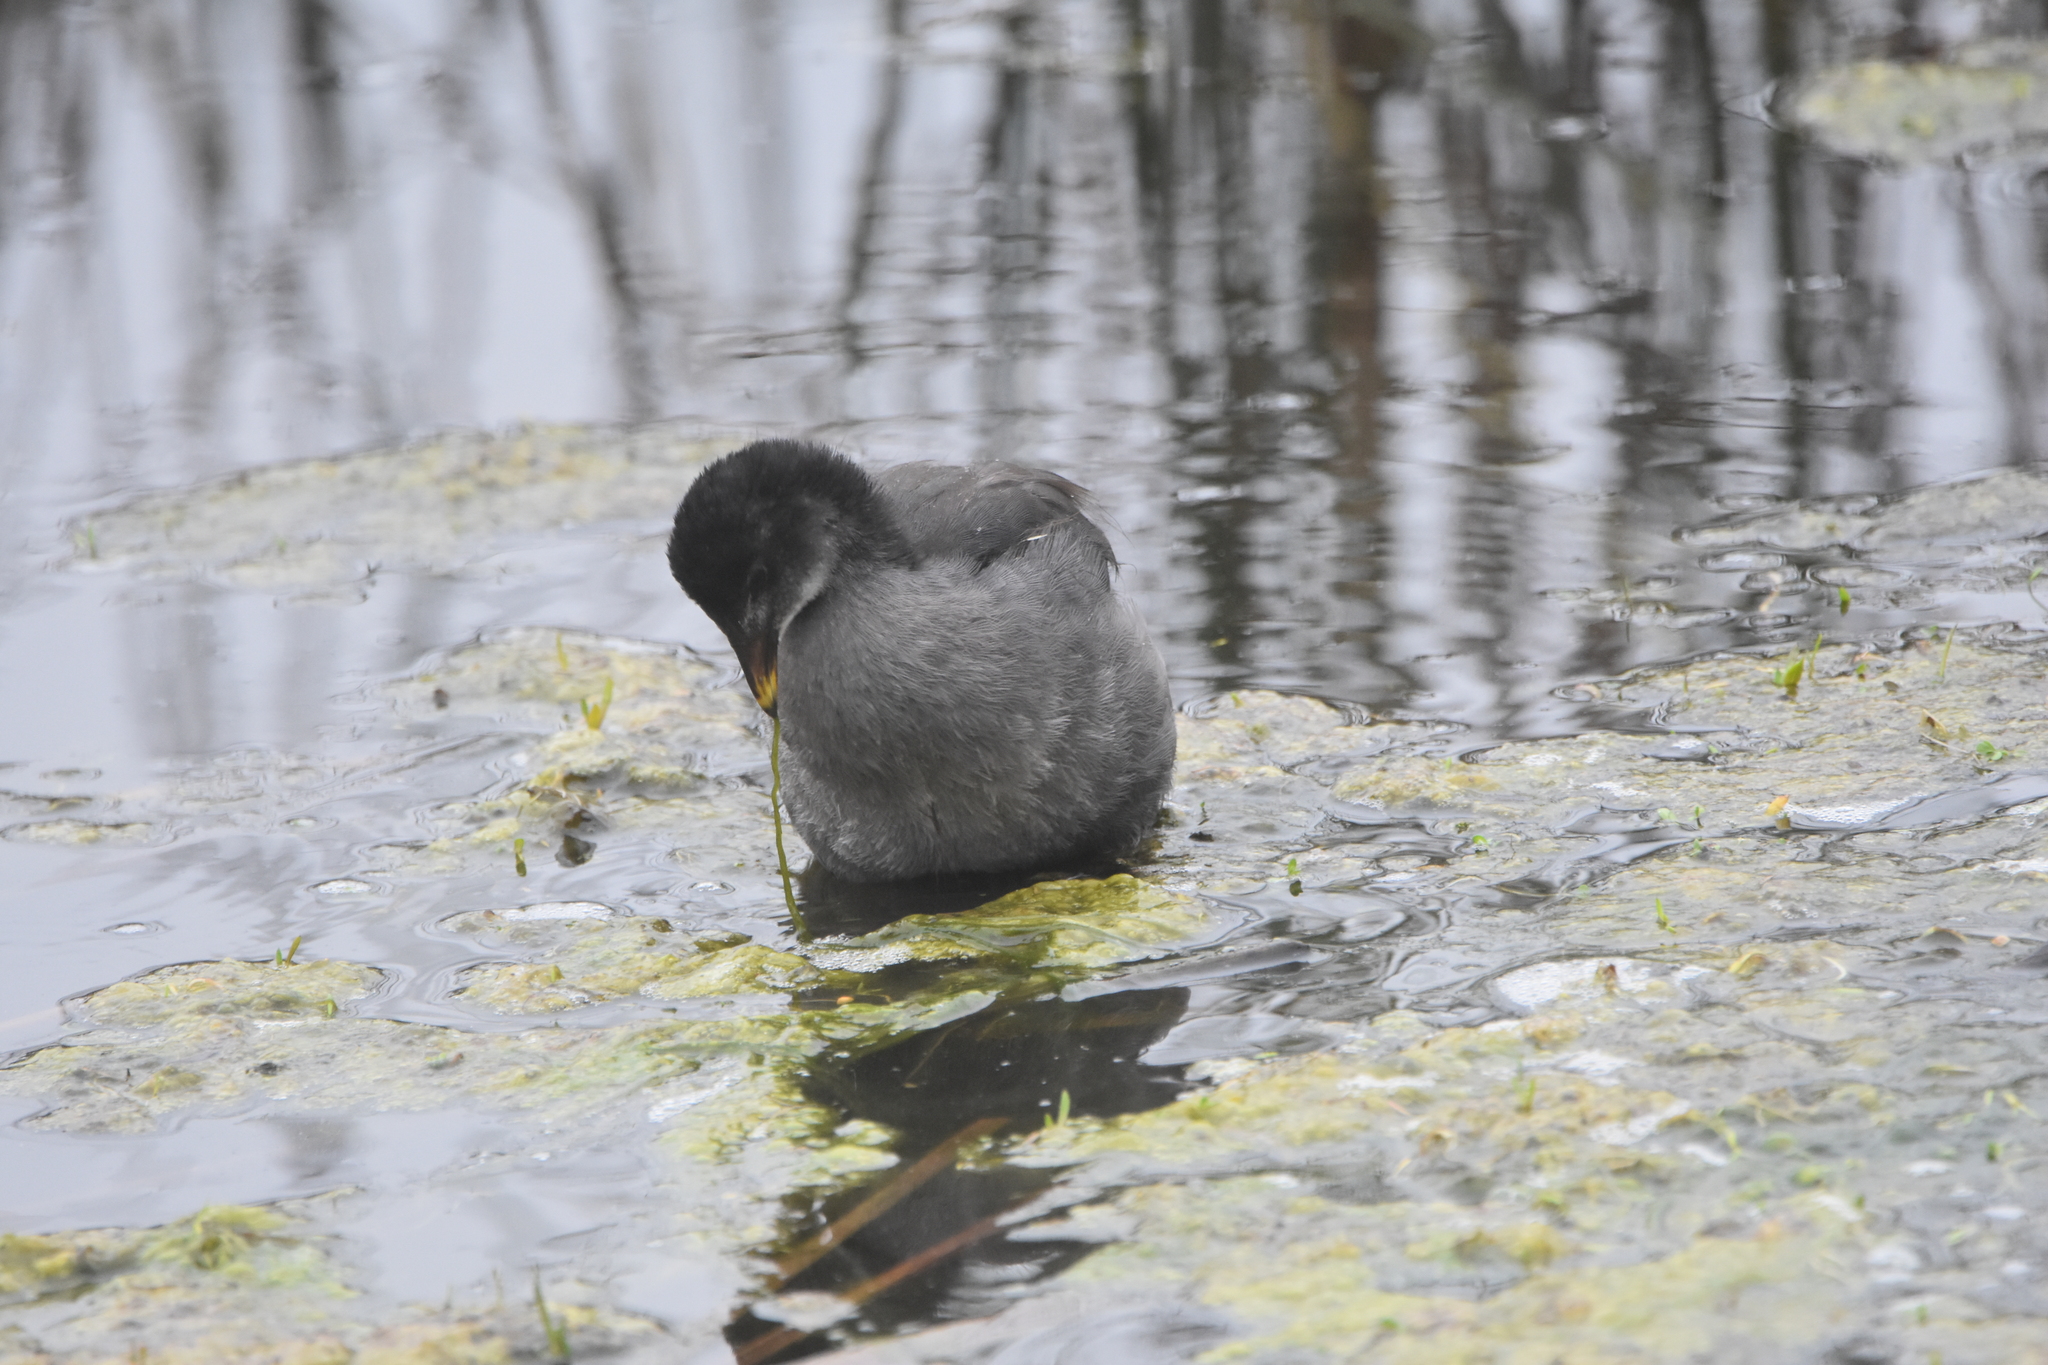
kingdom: Animalia
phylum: Chordata
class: Aves
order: Gruiformes
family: Rallidae
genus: Fulica
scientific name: Fulica rufifrons
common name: Red-fronted coot
